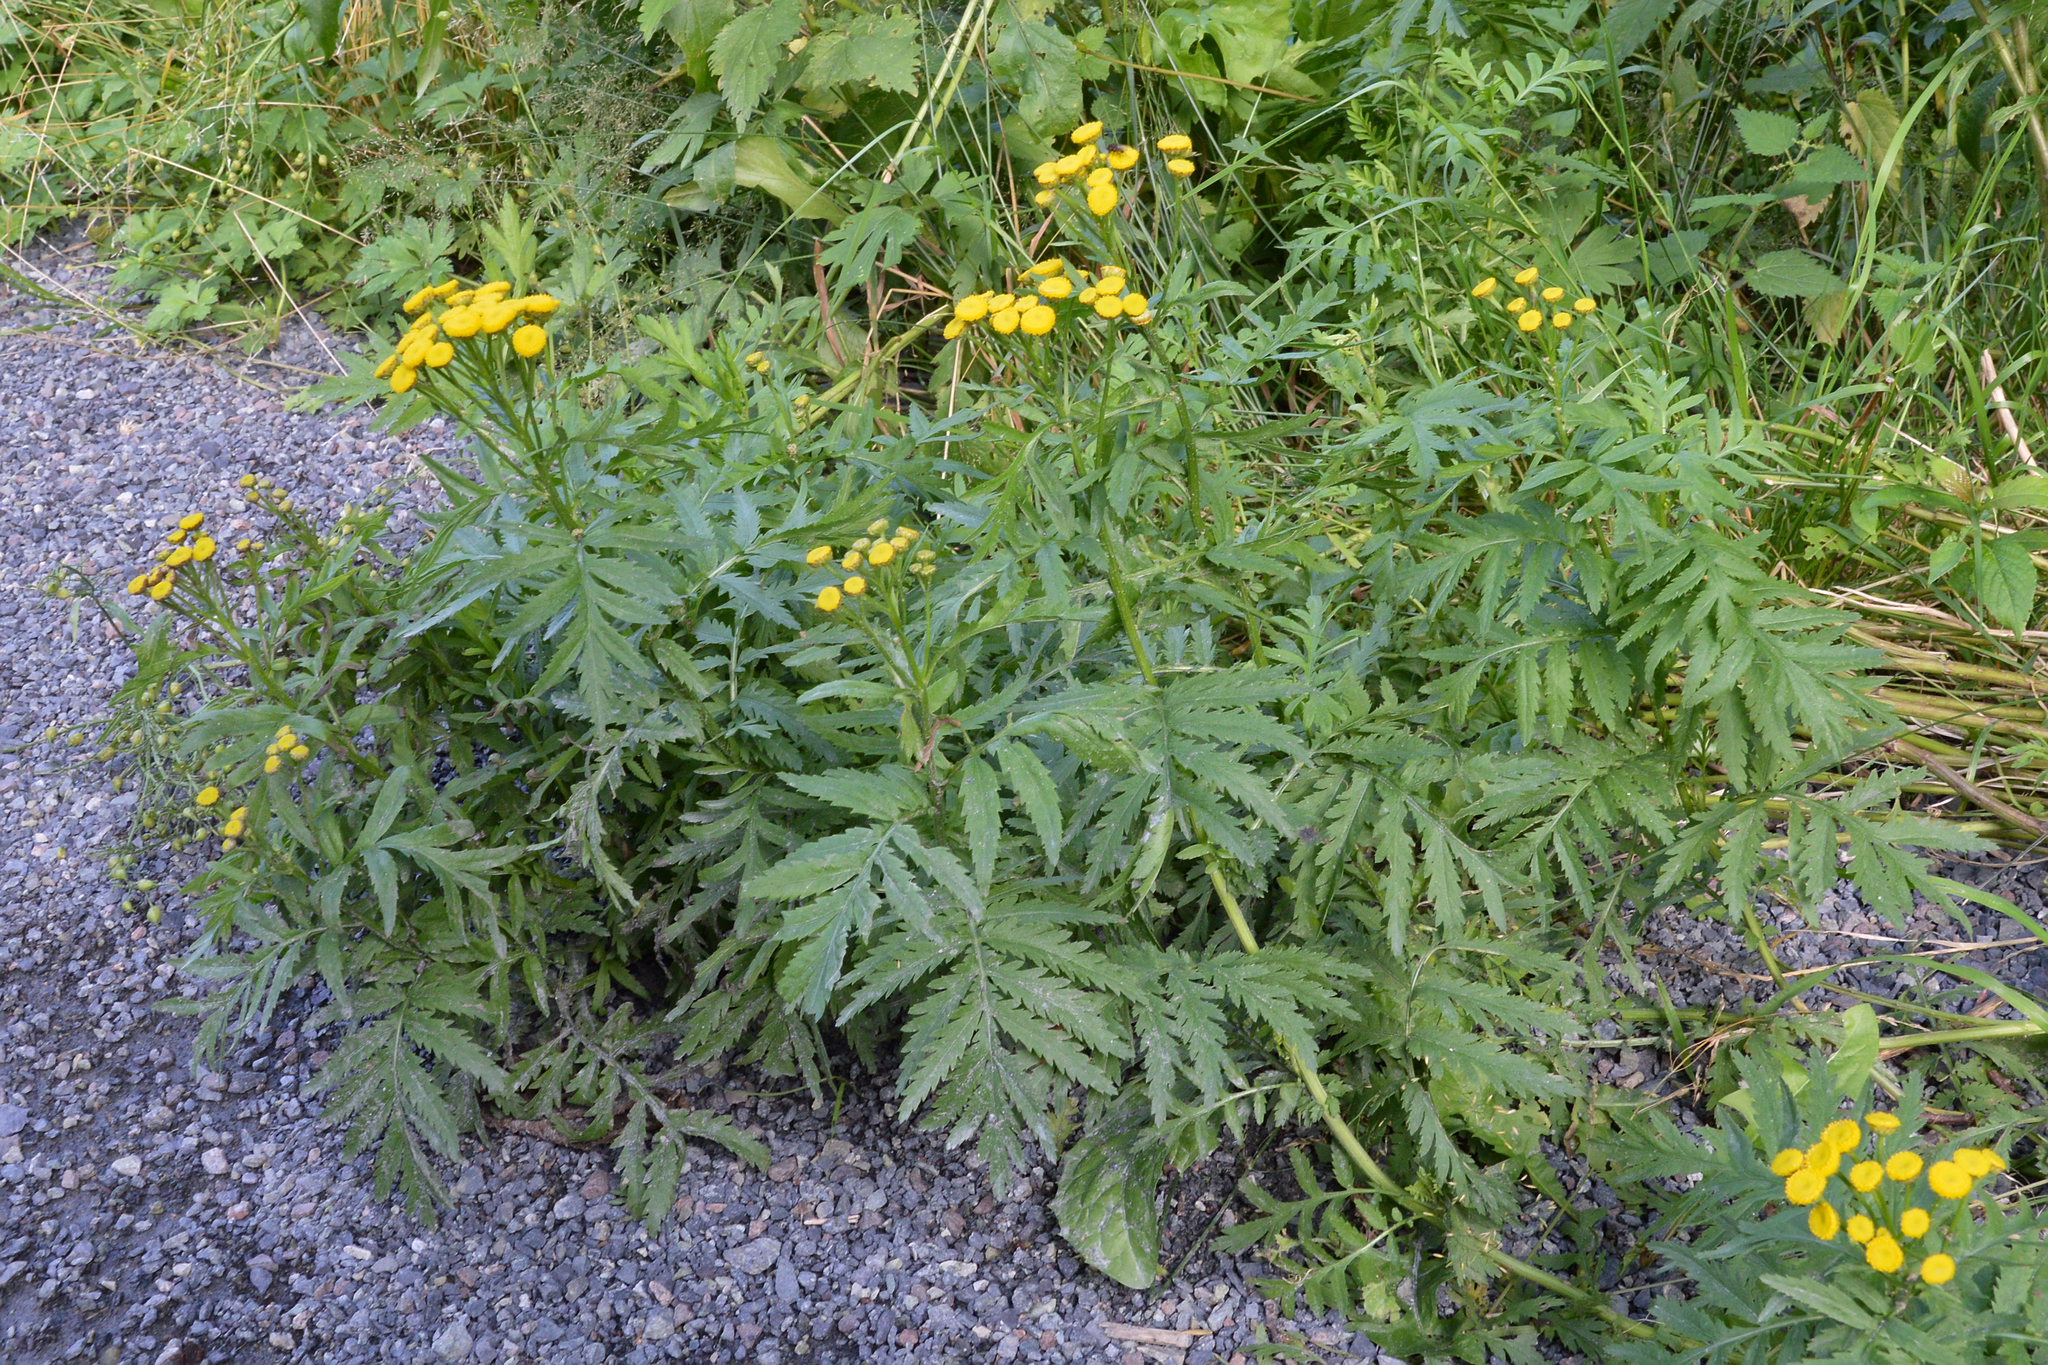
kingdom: Plantae
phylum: Tracheophyta
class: Magnoliopsida
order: Asterales
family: Asteraceae
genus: Tanacetum
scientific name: Tanacetum vulgare
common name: Common tansy
